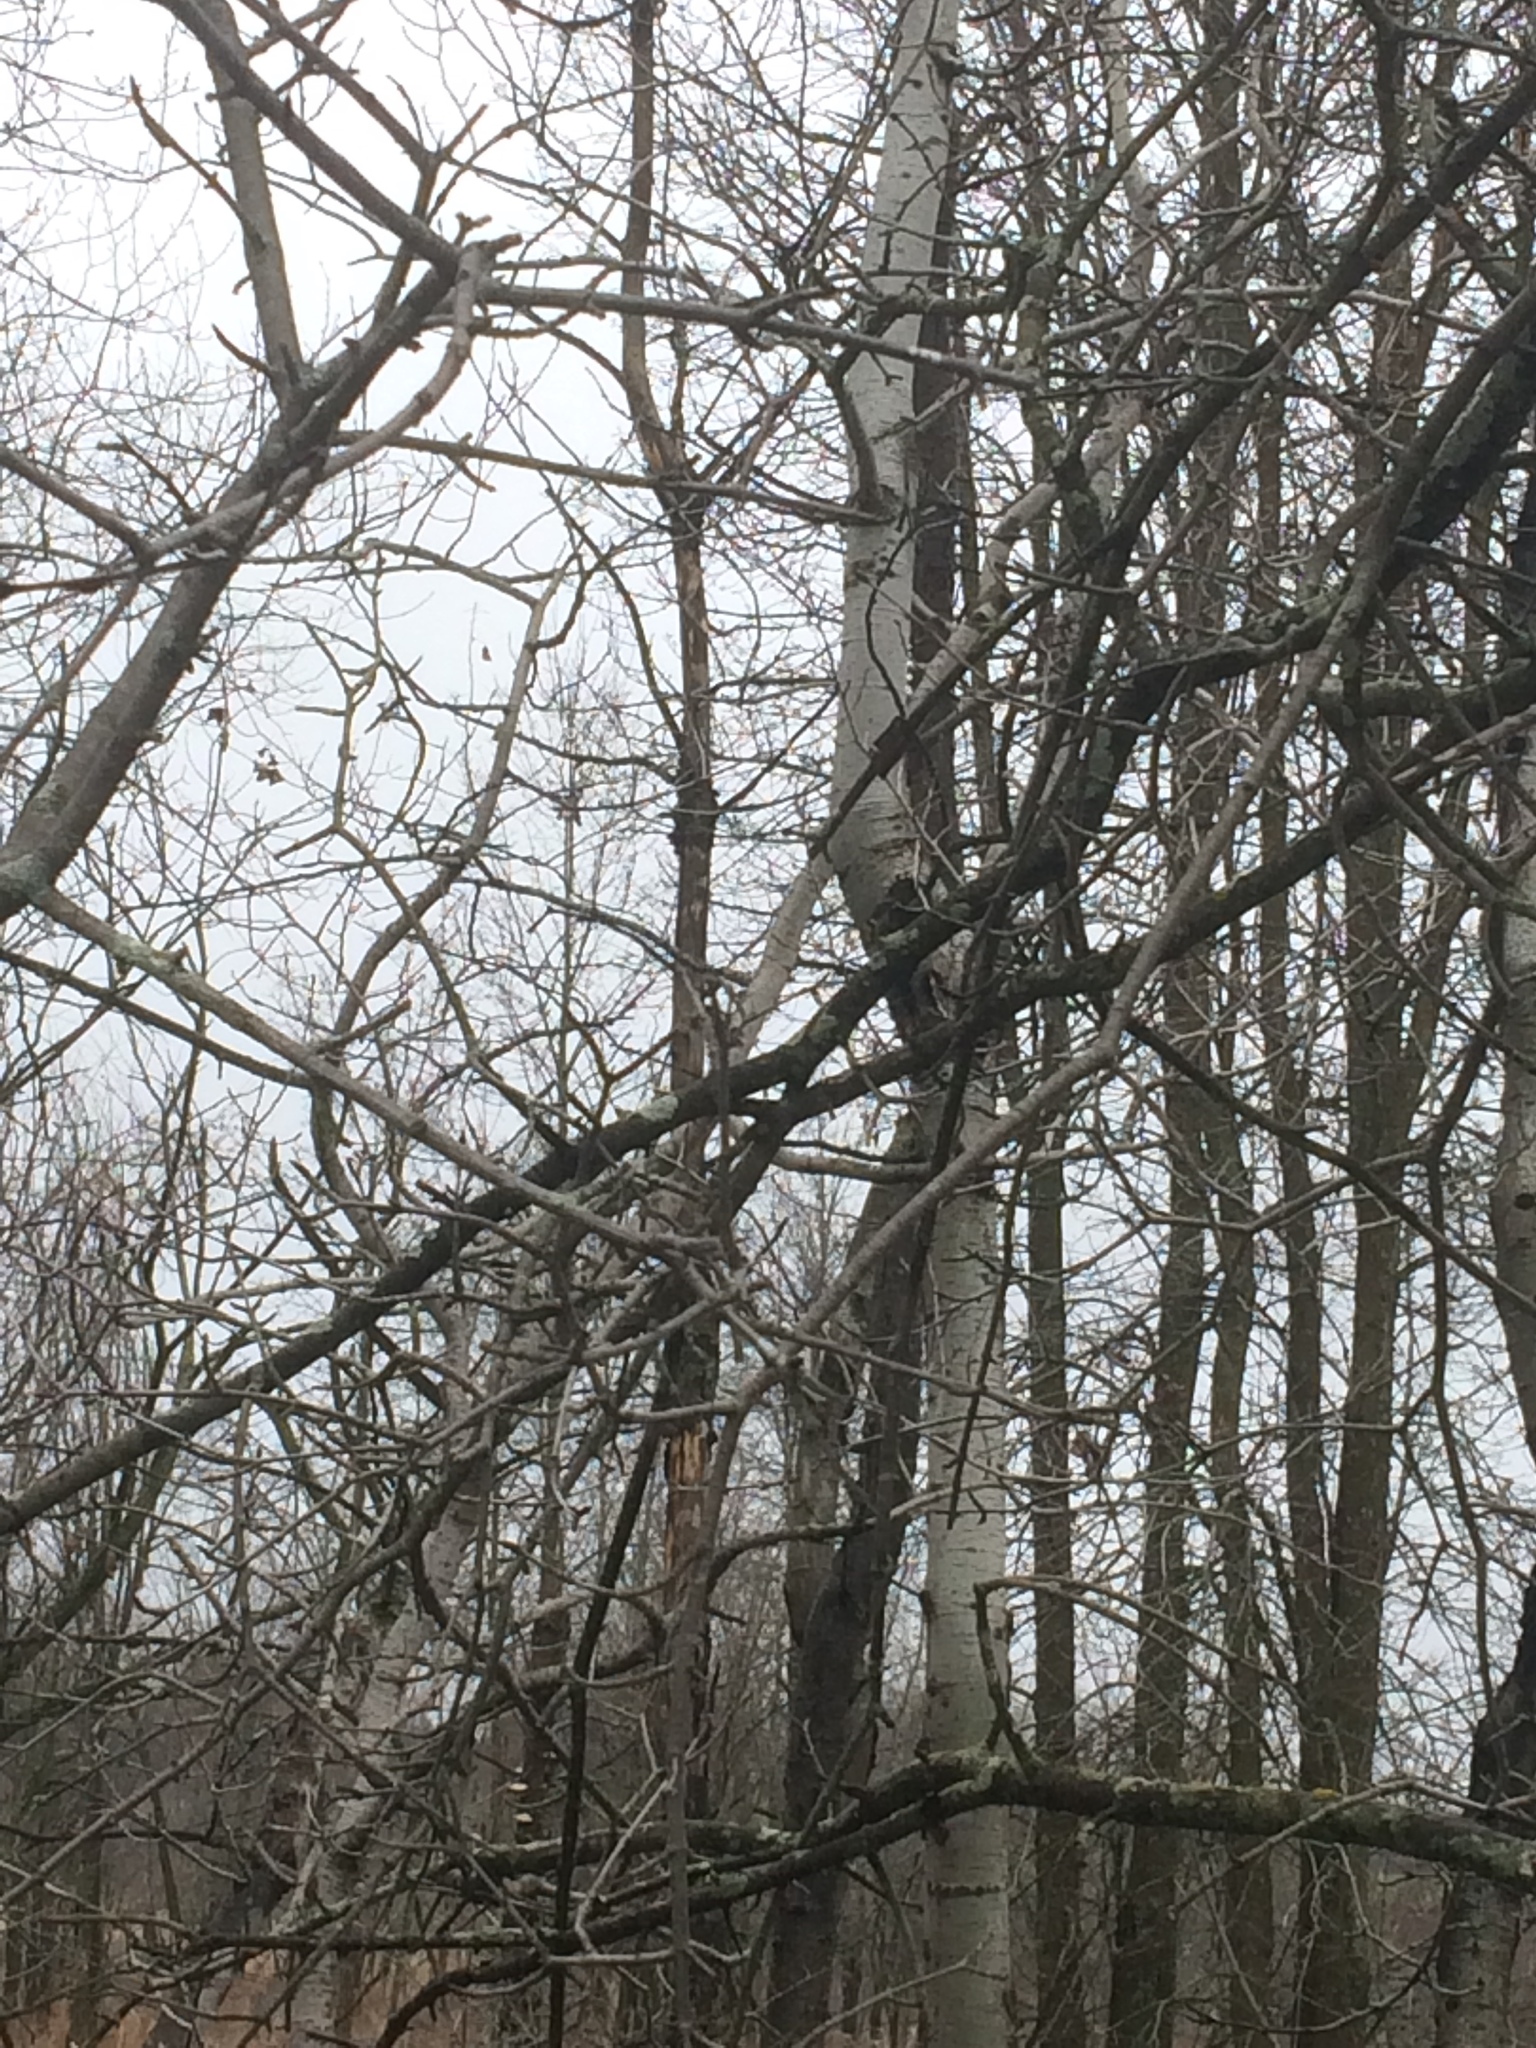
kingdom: Plantae
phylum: Tracheophyta
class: Magnoliopsida
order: Malpighiales
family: Salicaceae
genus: Populus
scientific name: Populus tremuloides
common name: Quaking aspen
